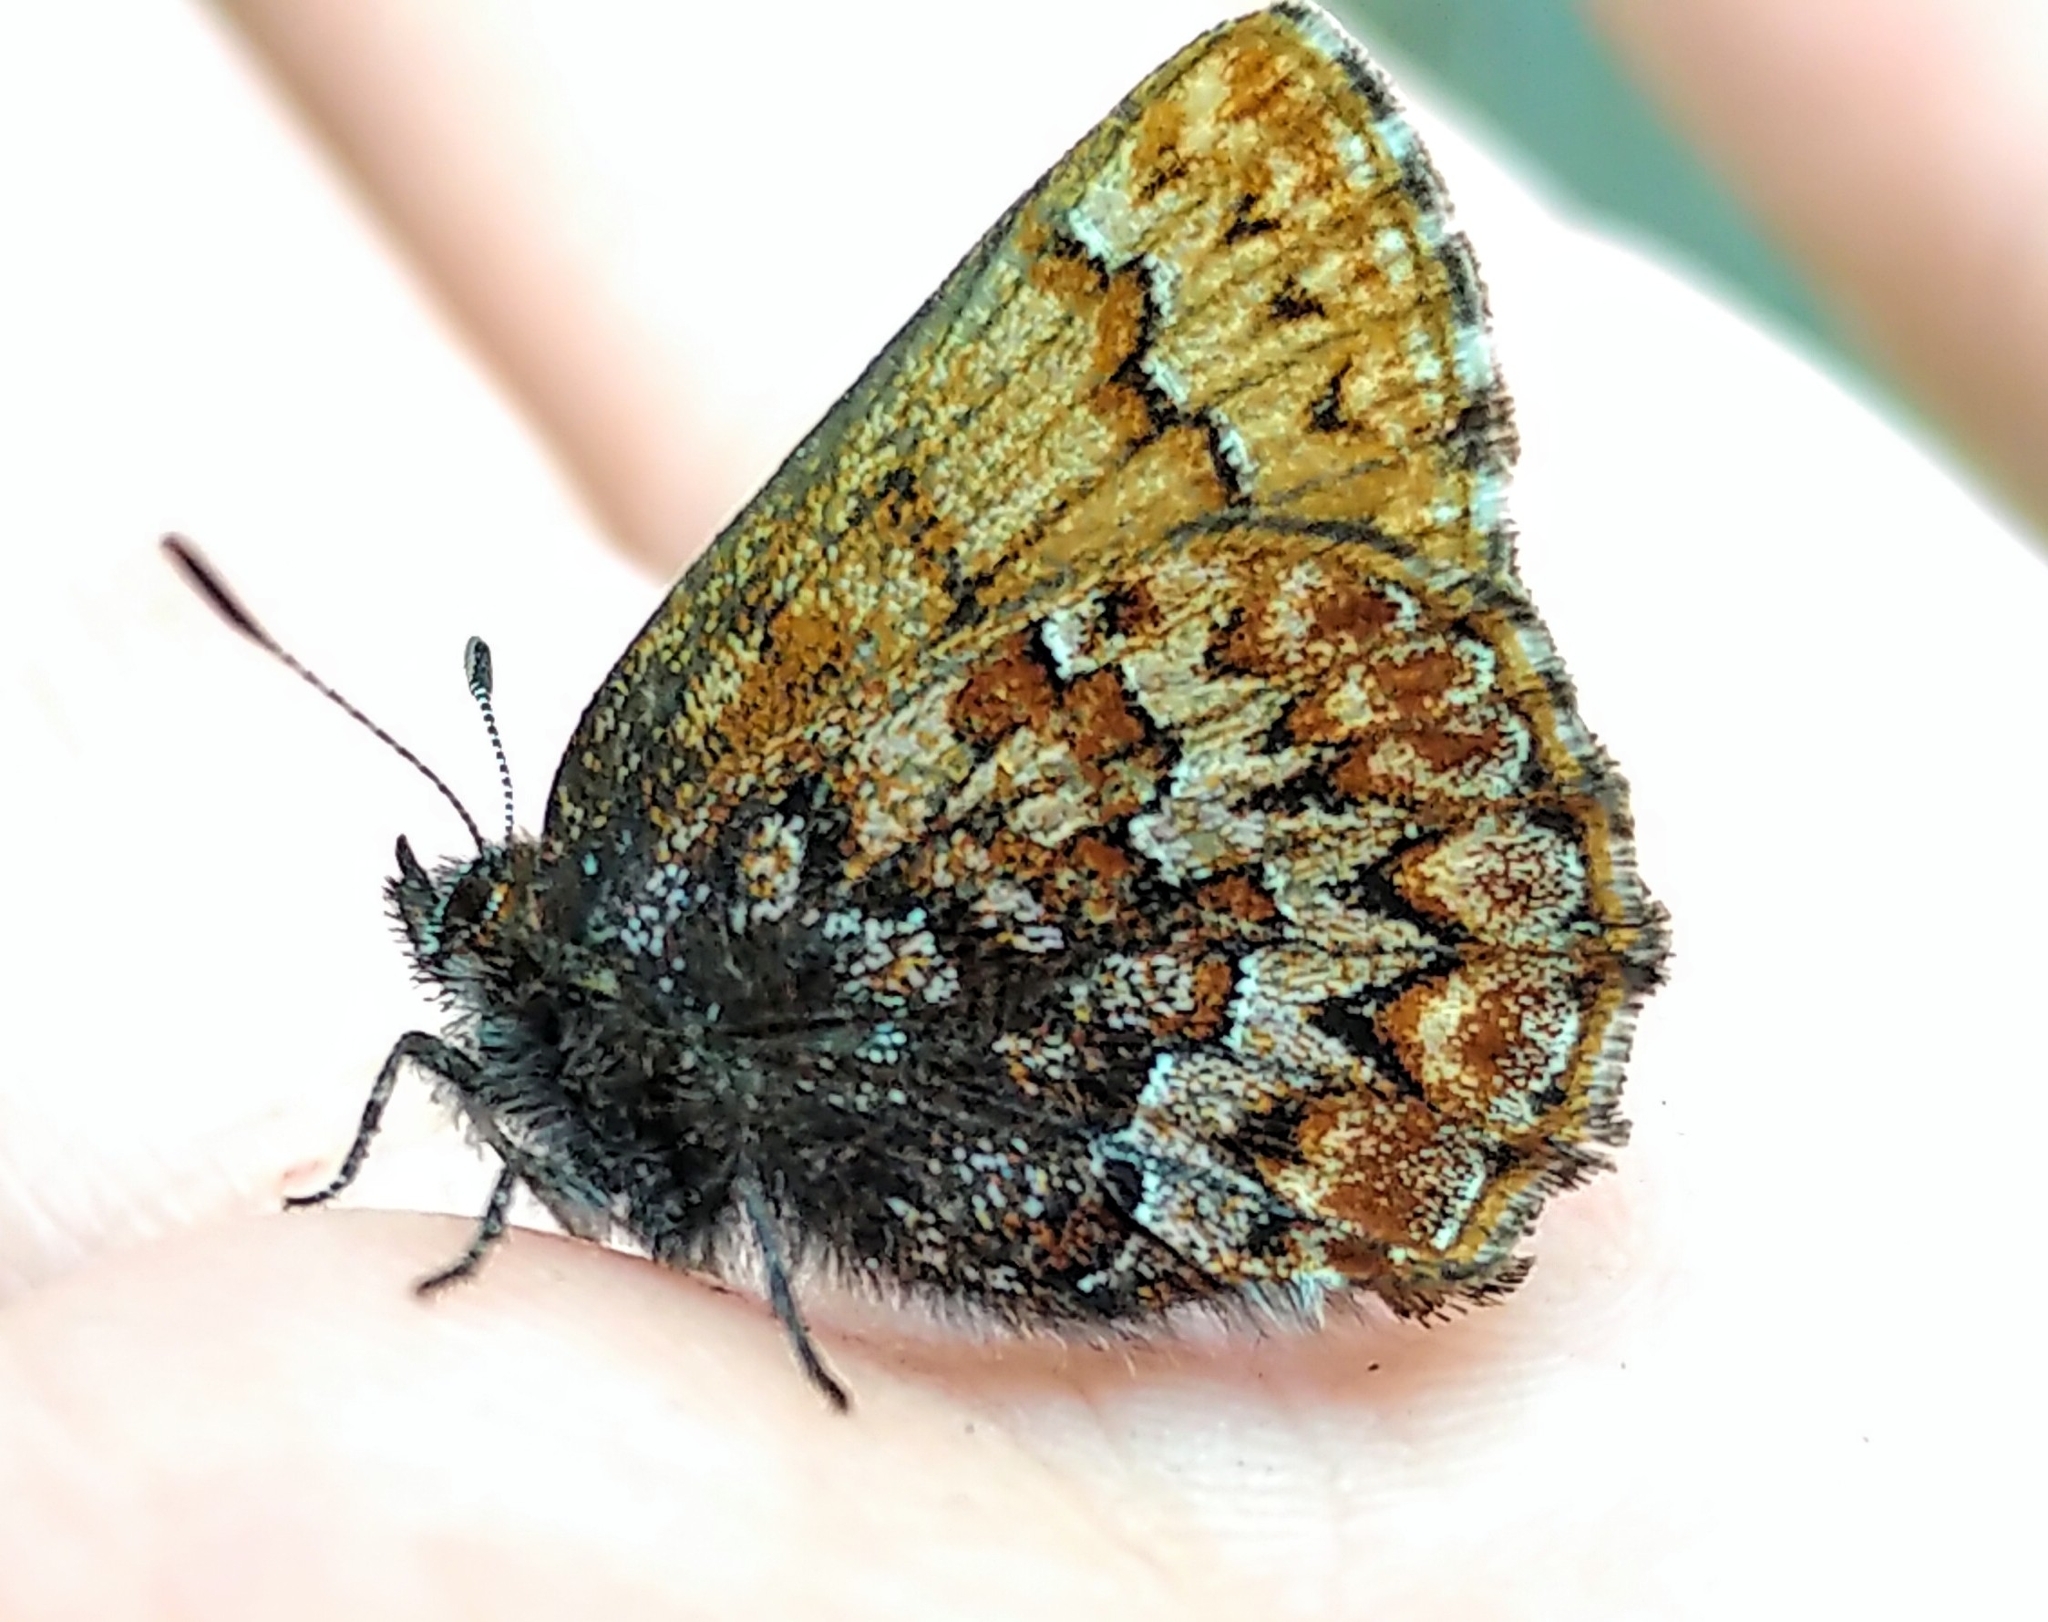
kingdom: Animalia
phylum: Arthropoda
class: Insecta
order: Lepidoptera
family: Lycaenidae
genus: Incisalia
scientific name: Incisalia eryphon
